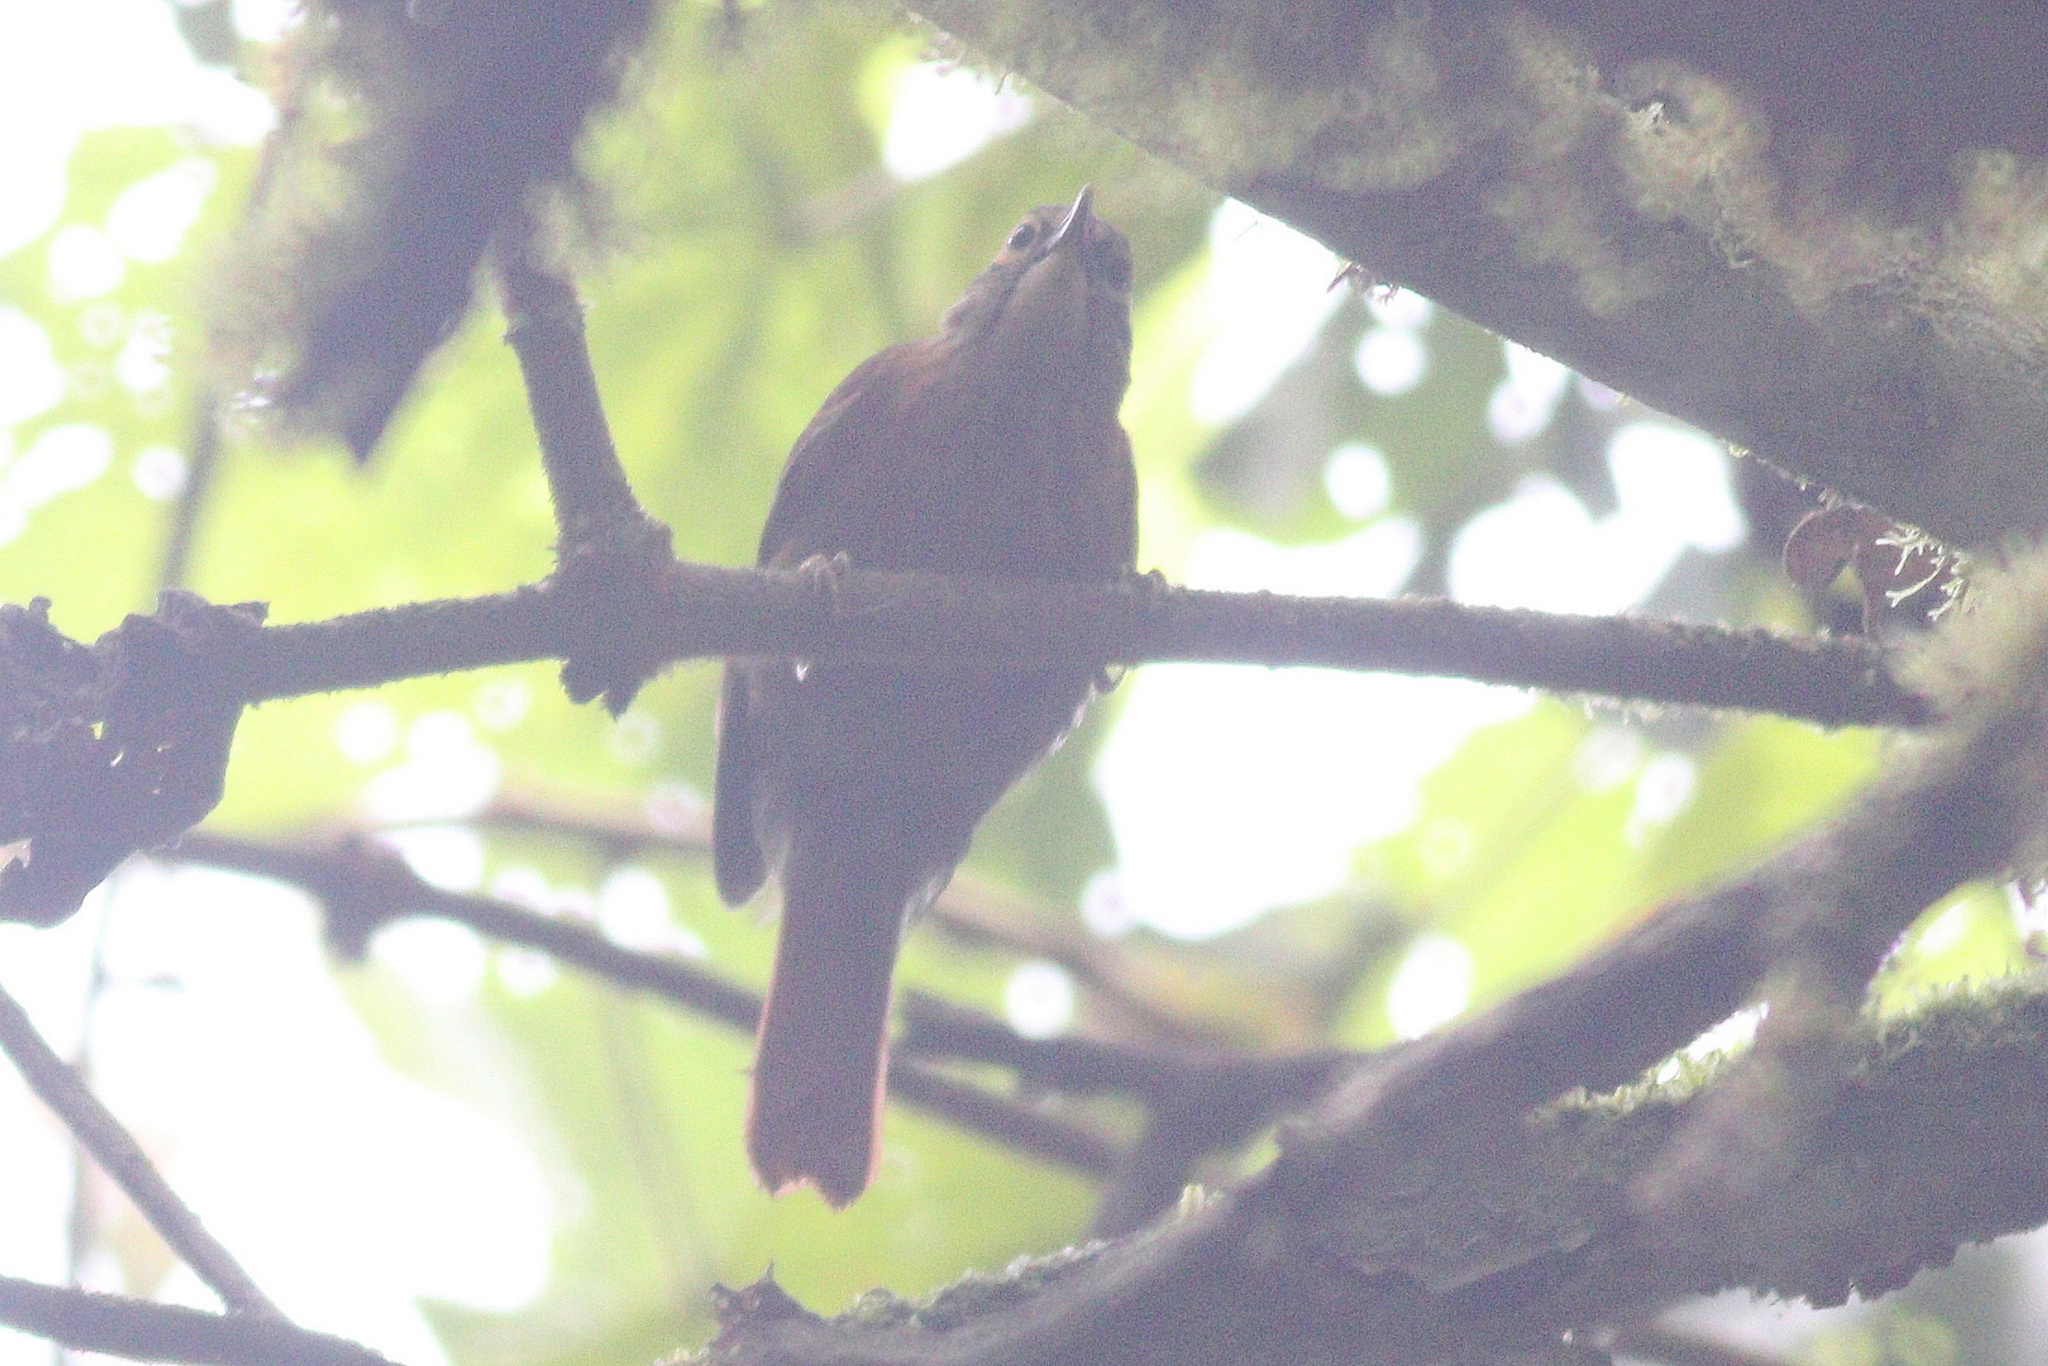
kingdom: Animalia
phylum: Chordata
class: Aves
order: Passeriformes
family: Furnariidae
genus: Anabacerthia
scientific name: Anabacerthia variegaticeps
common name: Scaly-throated foliage-gleaner
